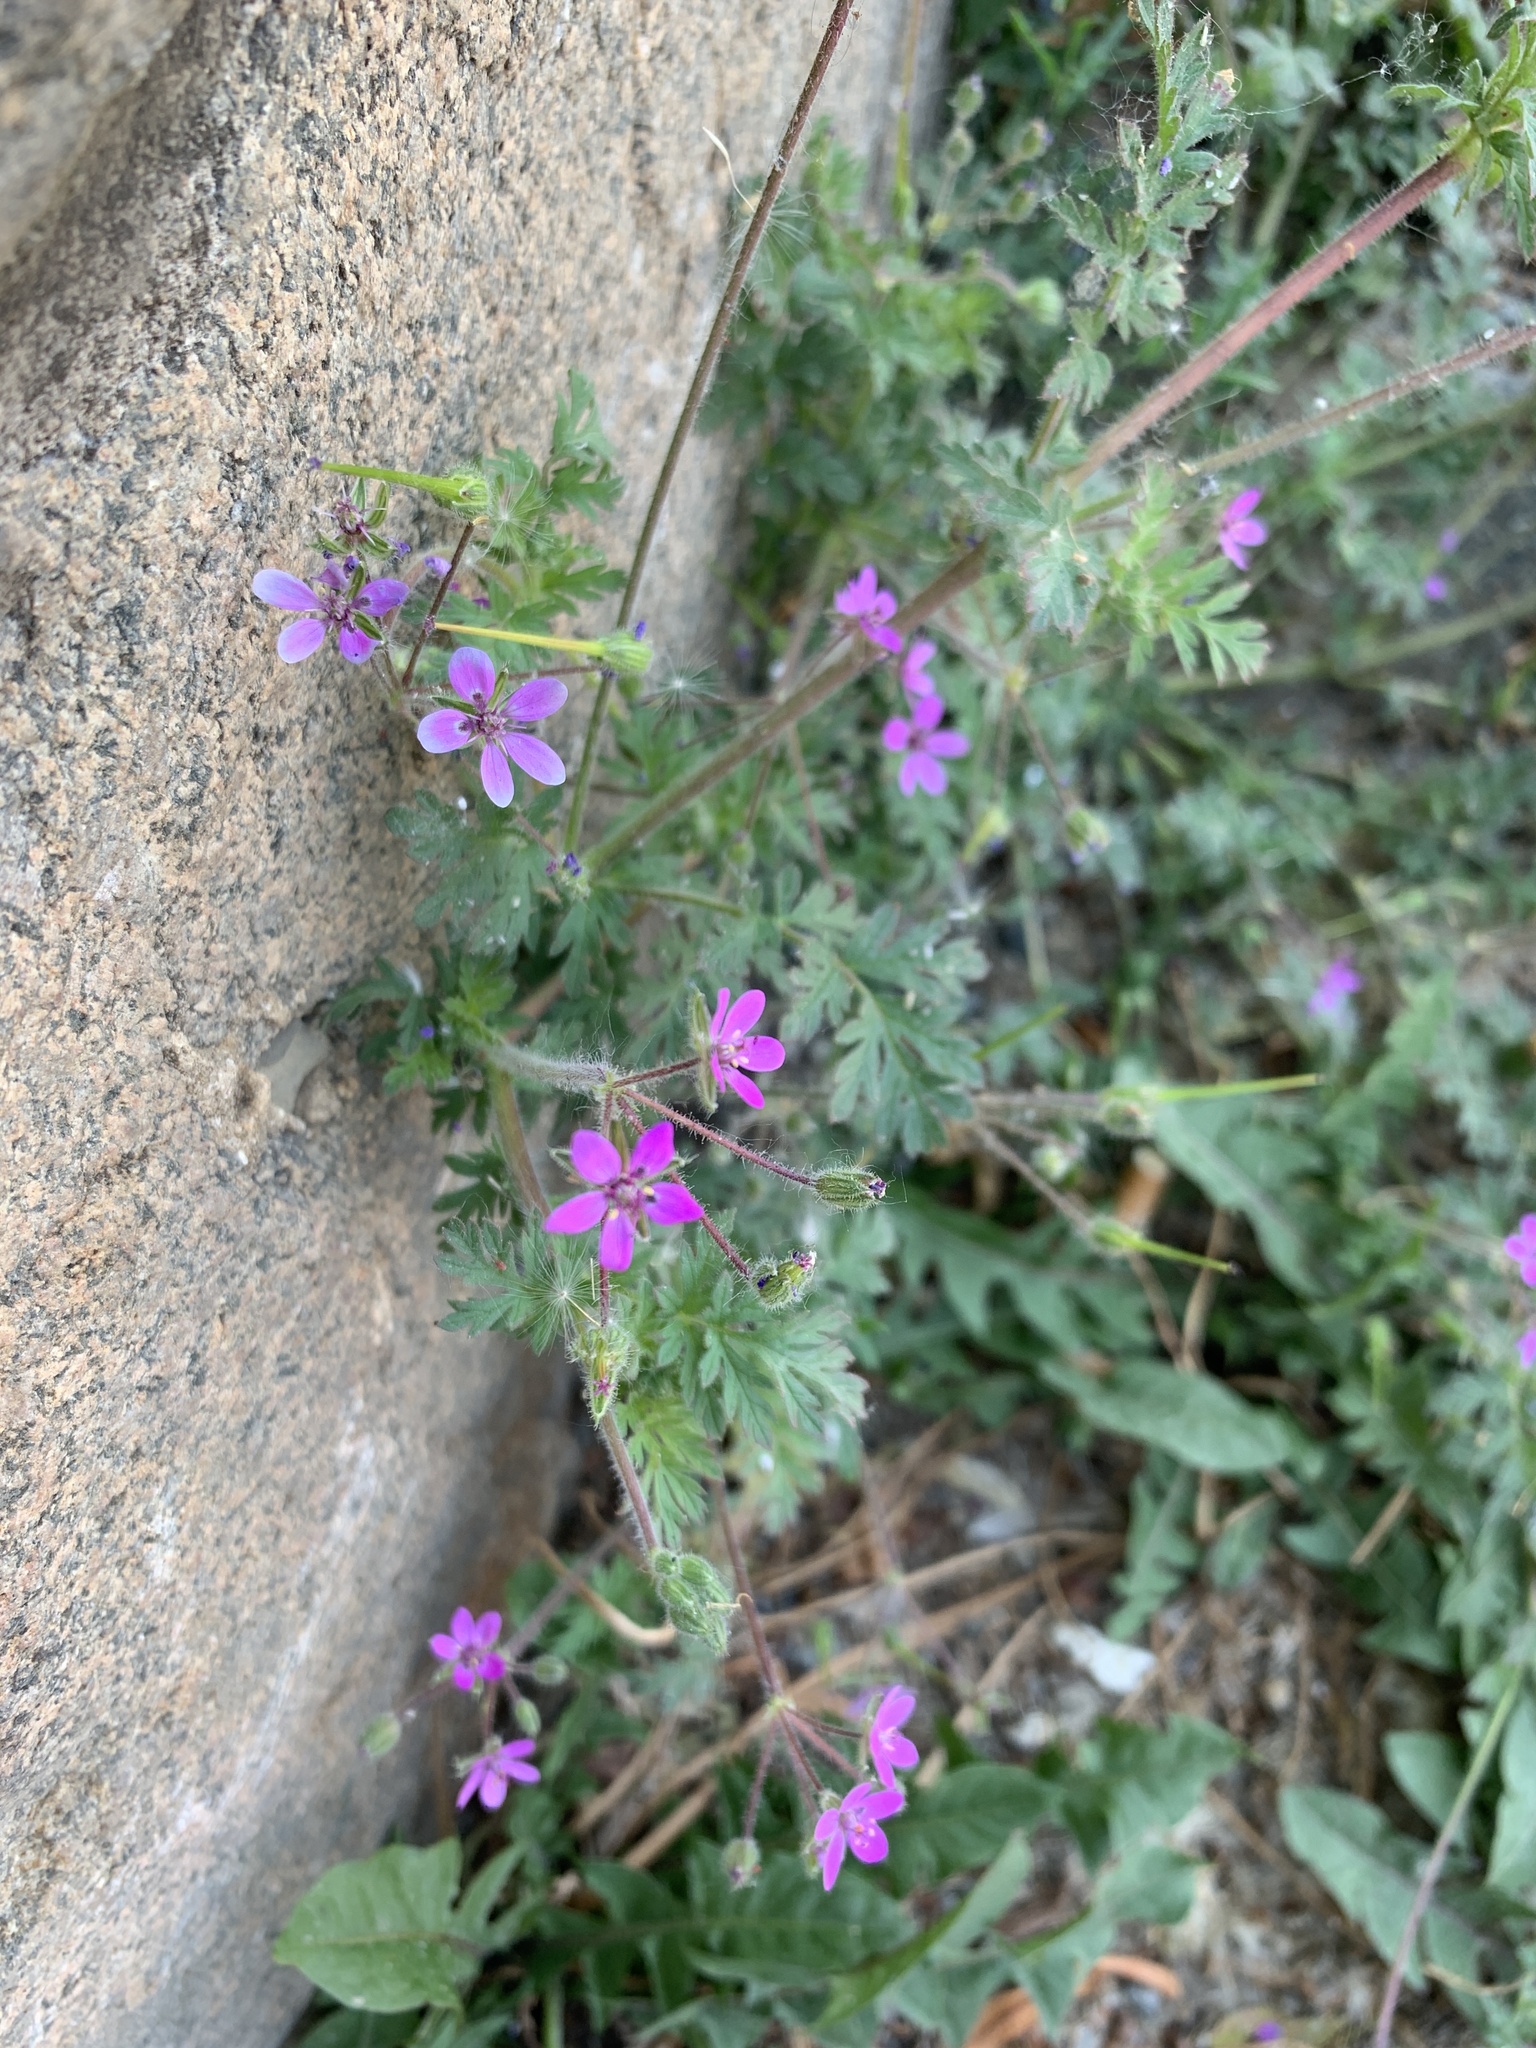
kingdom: Plantae
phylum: Tracheophyta
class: Magnoliopsida
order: Geraniales
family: Geraniaceae
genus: Erodium
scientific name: Erodium cicutarium
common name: Common stork's-bill
